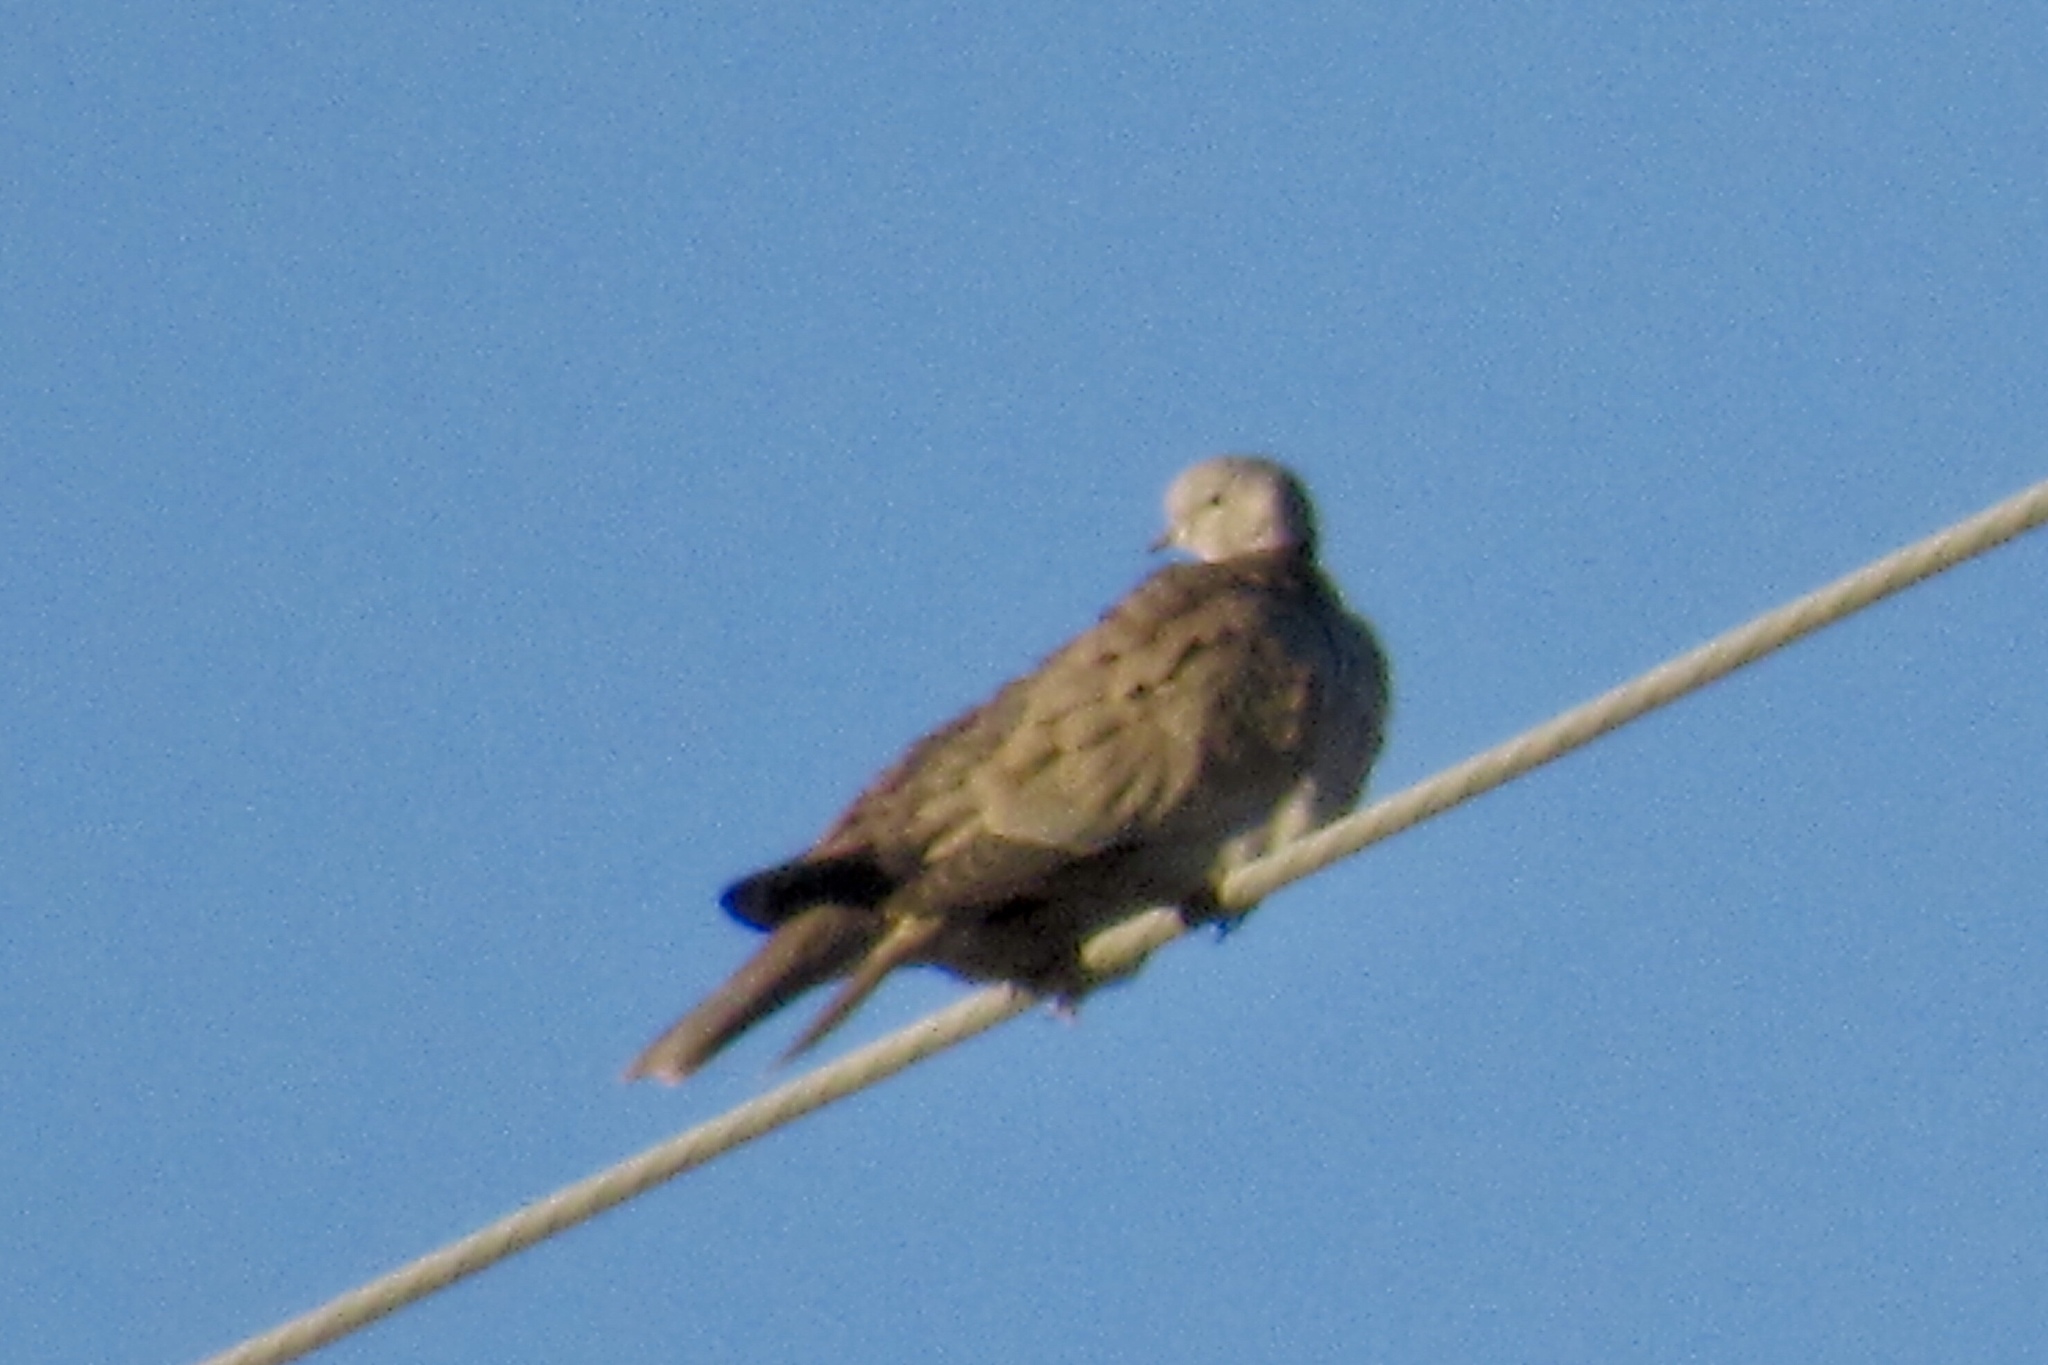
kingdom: Animalia
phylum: Chordata
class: Aves
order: Columbiformes
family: Columbidae
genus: Streptopelia
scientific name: Streptopelia decaocto
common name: Eurasian collared dove
